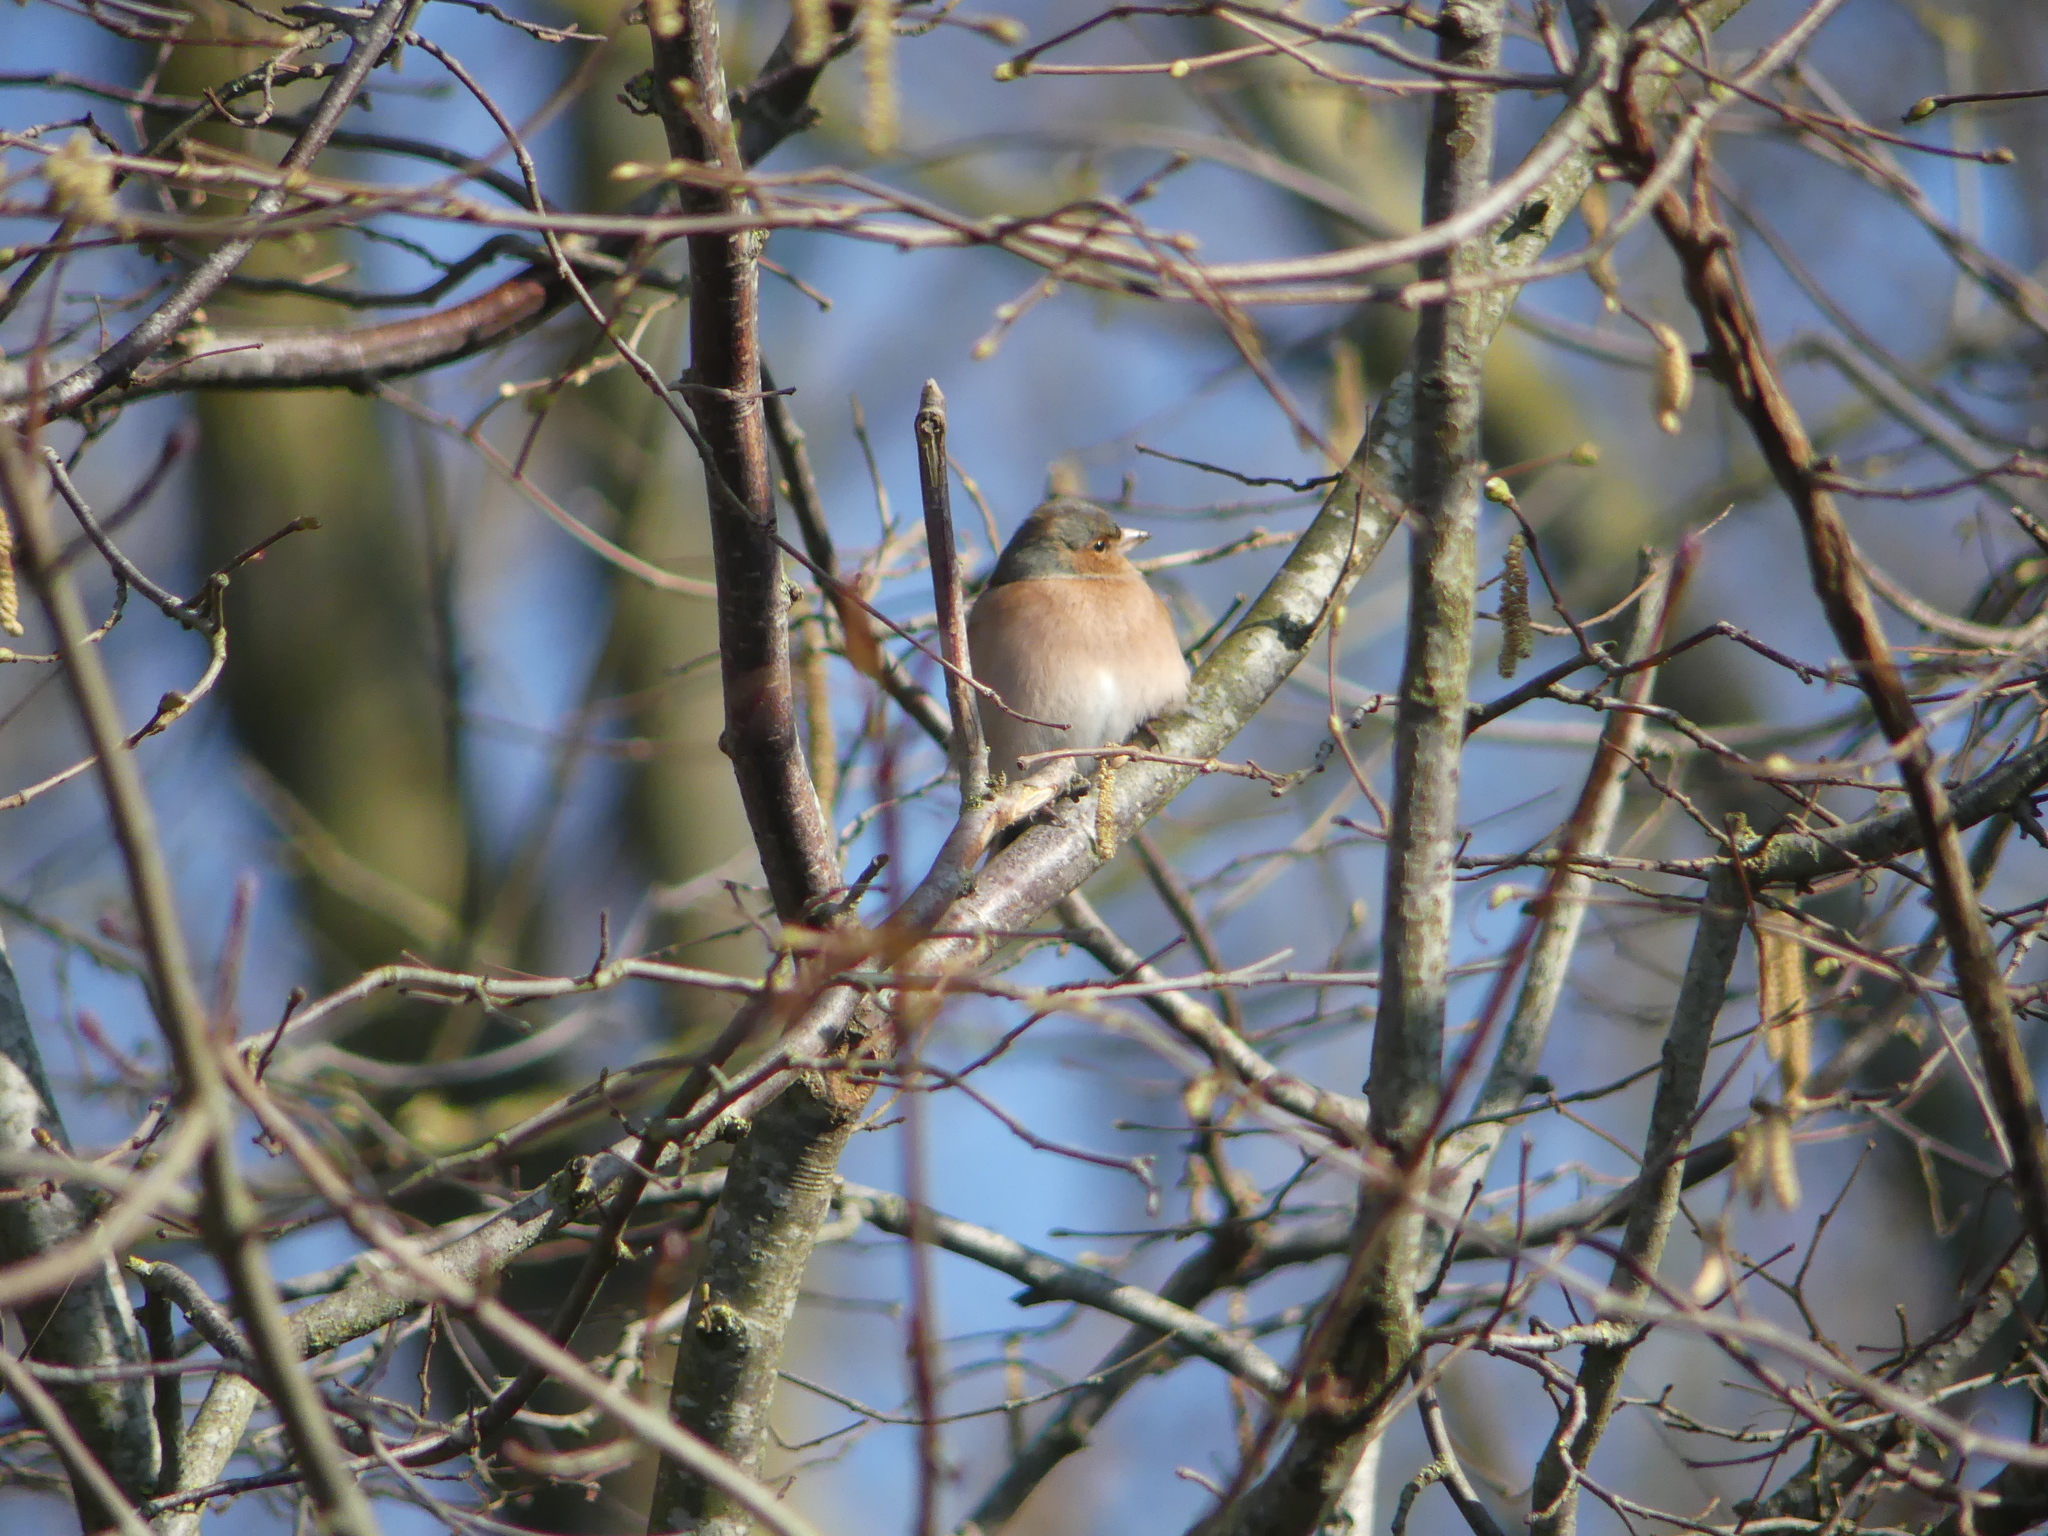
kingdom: Animalia
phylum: Chordata
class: Aves
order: Passeriformes
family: Fringillidae
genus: Fringilla
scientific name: Fringilla coelebs
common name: Common chaffinch
